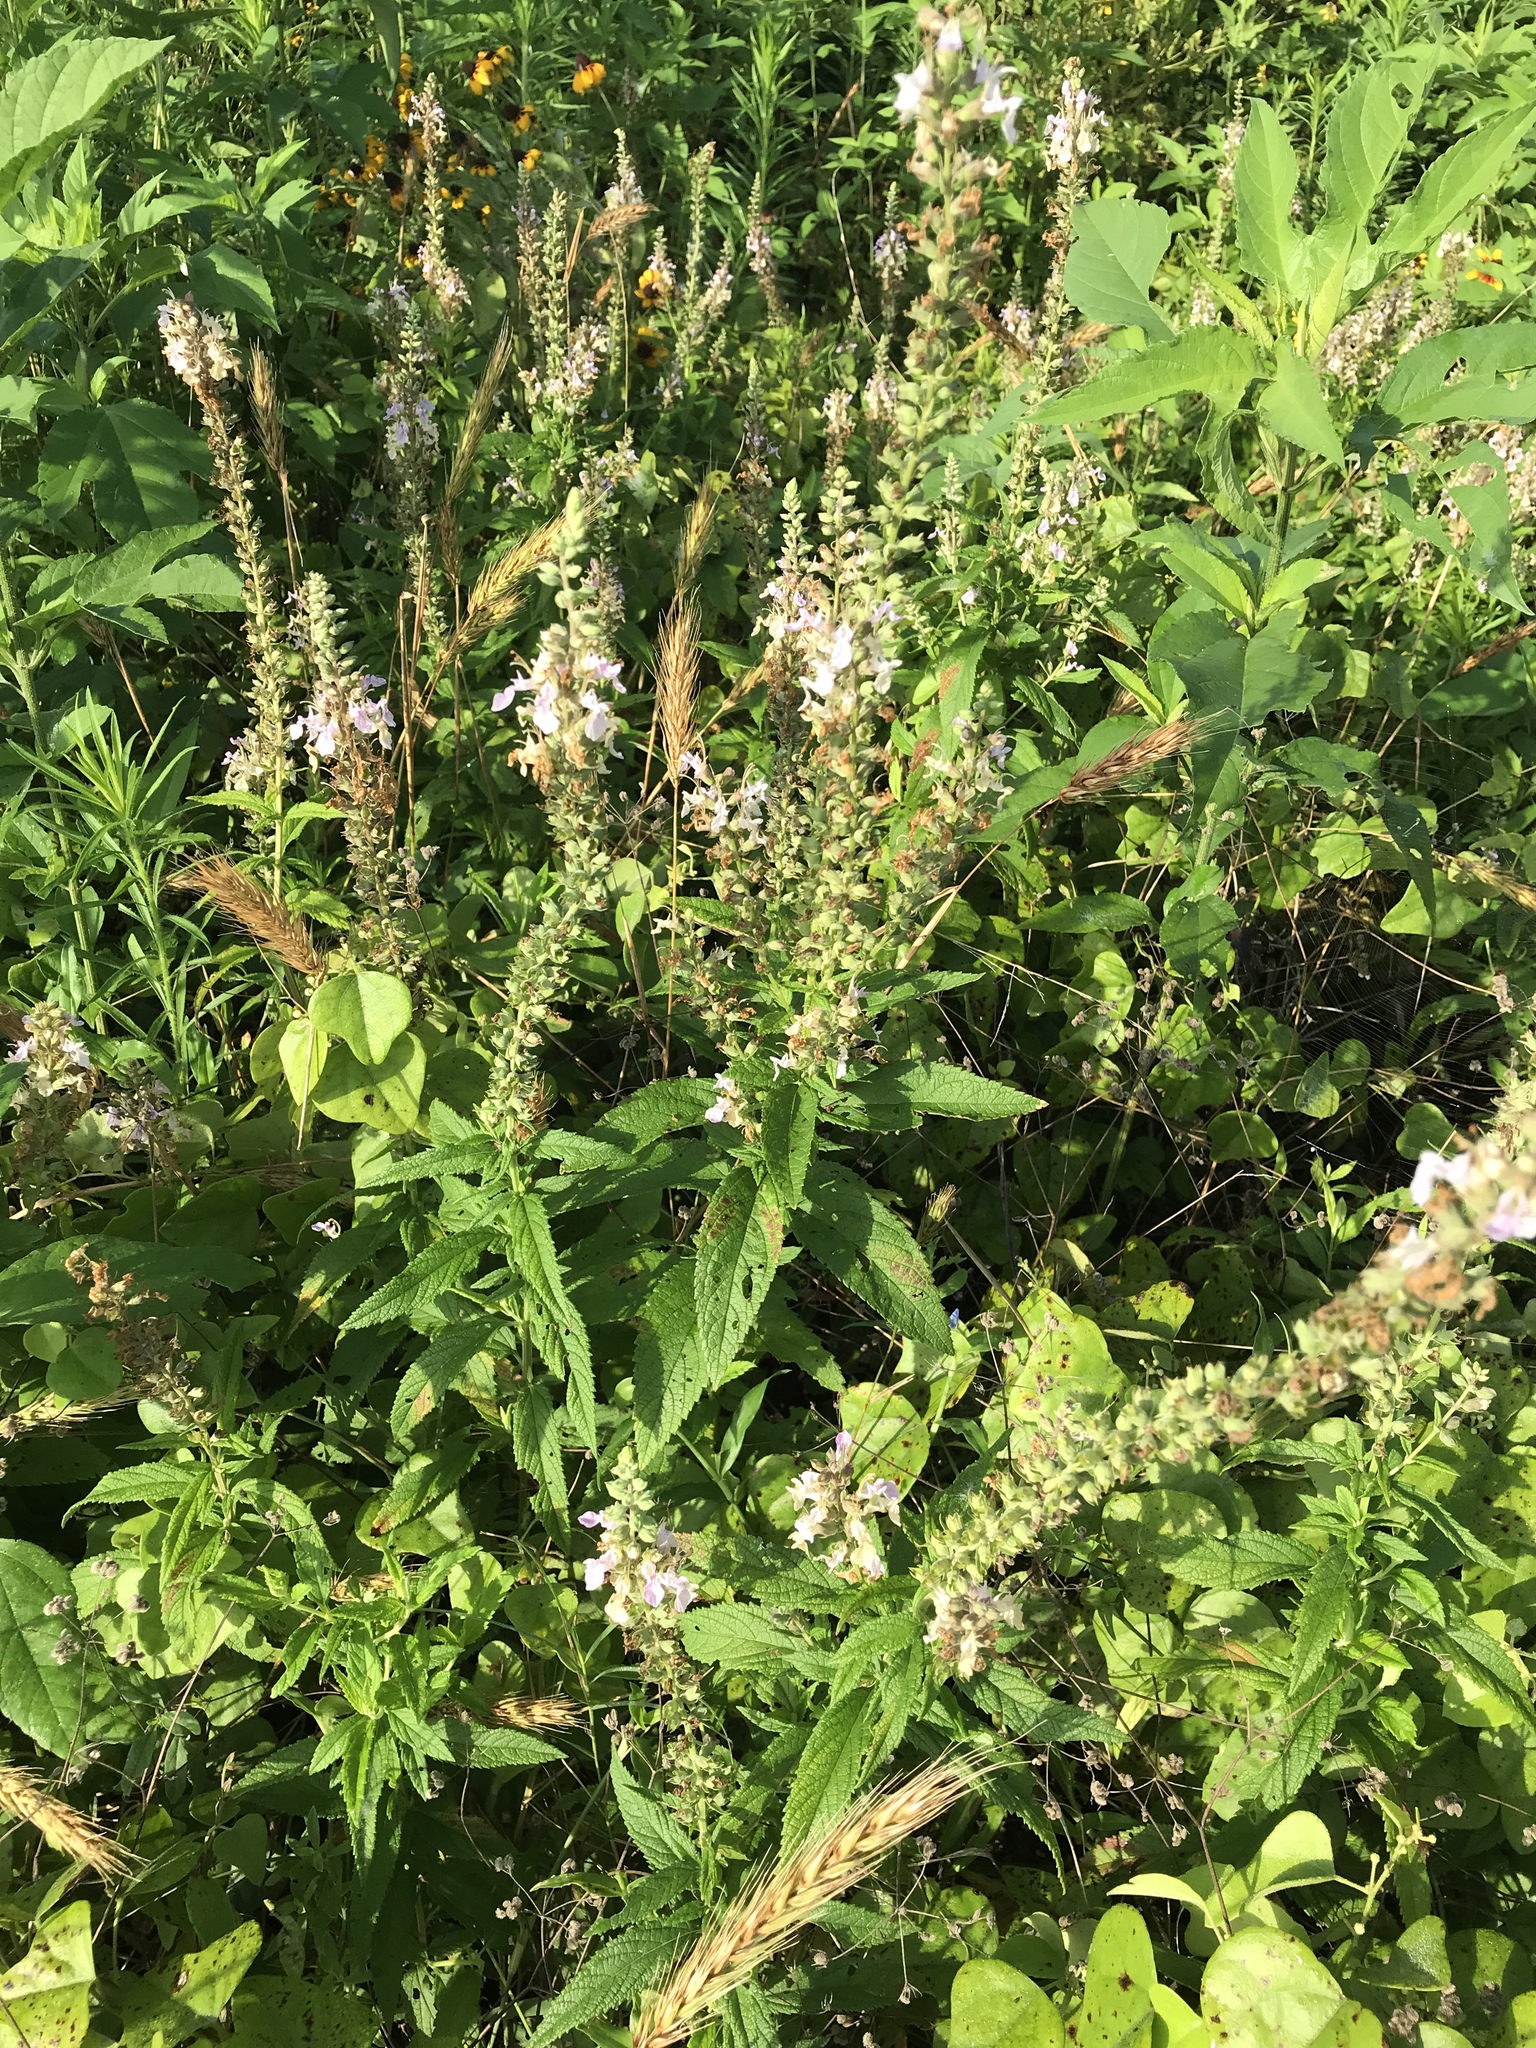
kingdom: Plantae
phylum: Tracheophyta
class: Magnoliopsida
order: Lamiales
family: Lamiaceae
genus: Teucrium
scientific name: Teucrium canadense
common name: American germander
